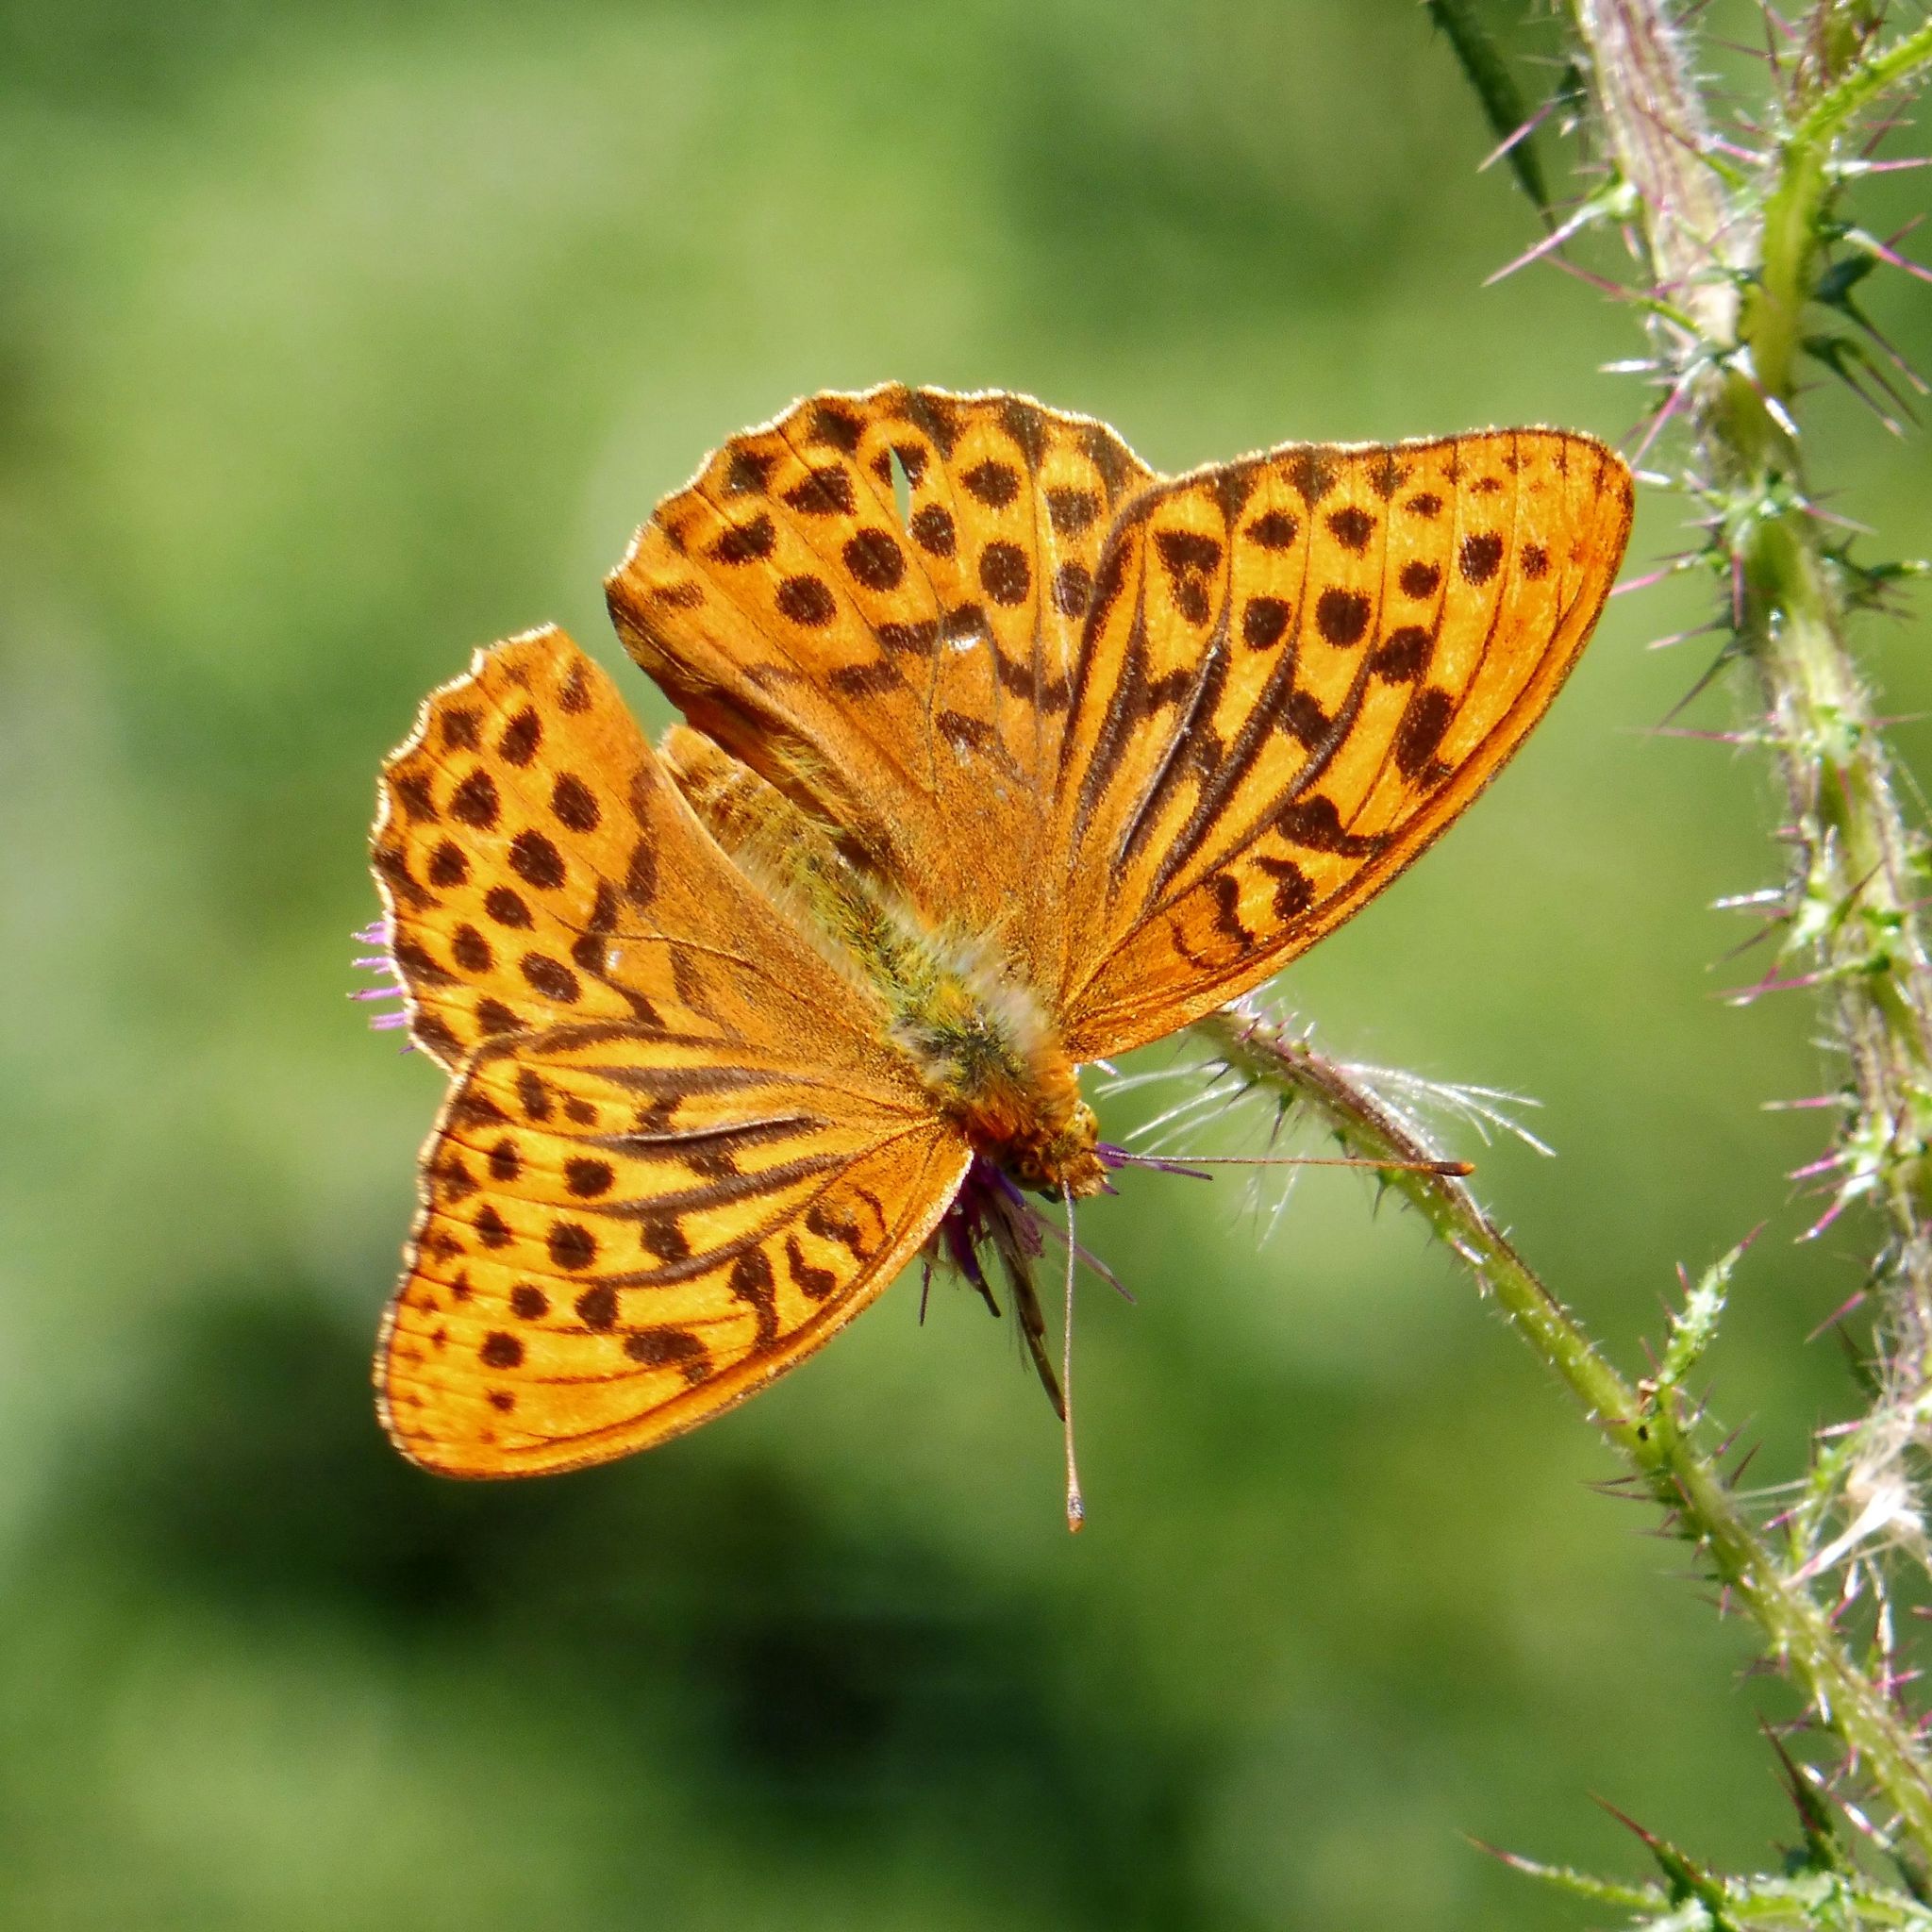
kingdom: Animalia
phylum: Arthropoda
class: Insecta
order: Lepidoptera
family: Nymphalidae
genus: Argynnis
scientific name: Argynnis paphia
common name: Silver-washed fritillary
